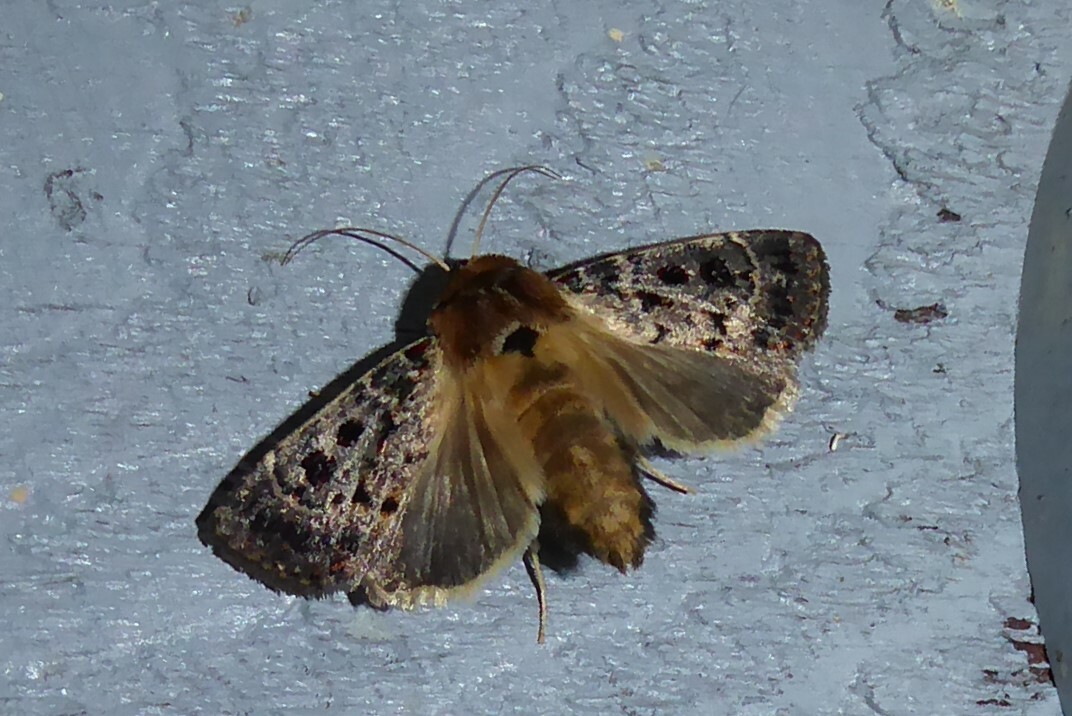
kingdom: Animalia
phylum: Arthropoda
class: Insecta
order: Lepidoptera
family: Noctuidae
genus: Proteuxoa
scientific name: Proteuxoa sanguinipuncta
